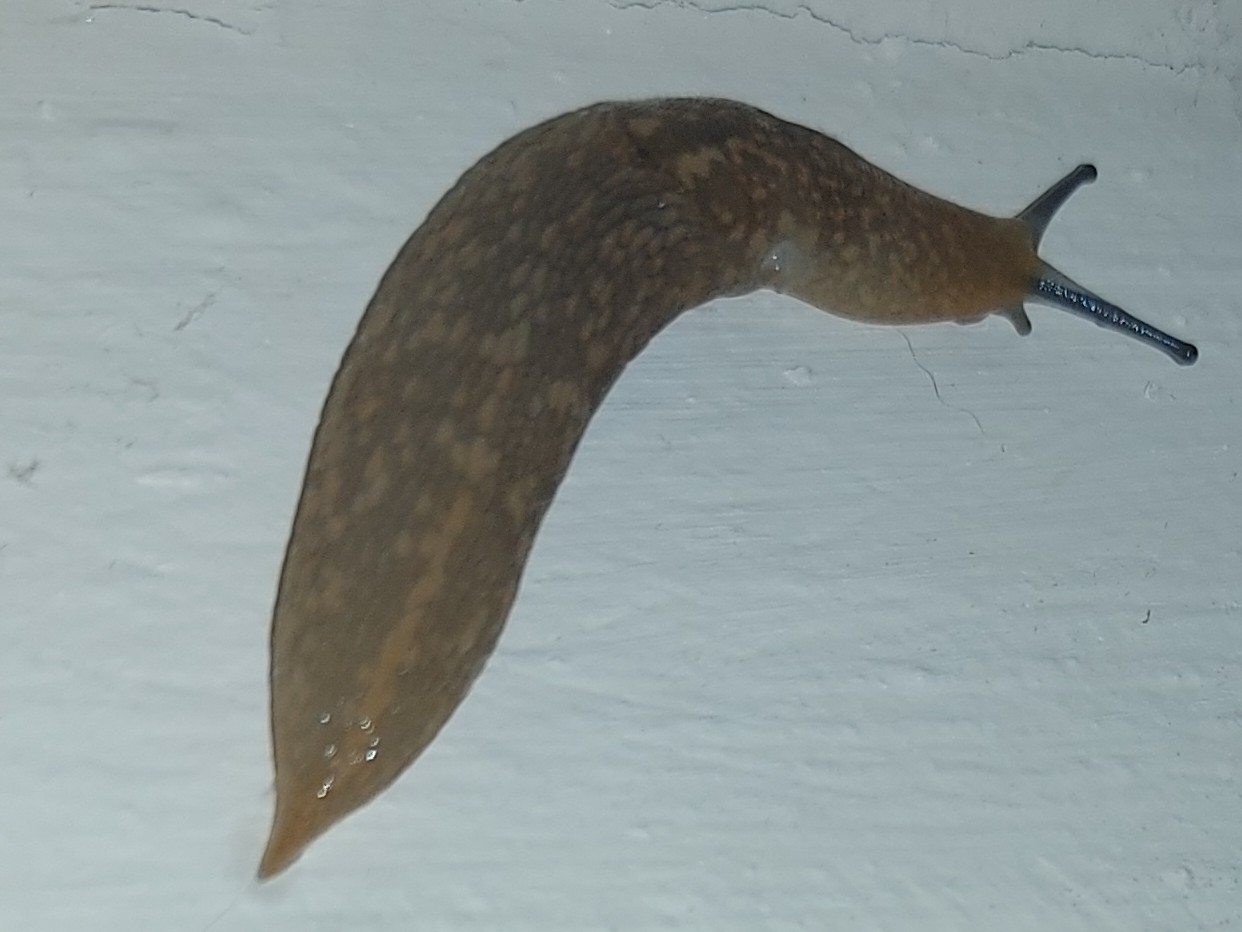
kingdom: Animalia
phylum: Mollusca
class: Gastropoda
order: Stylommatophora
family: Limacidae
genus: Limacus
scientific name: Limacus flavus
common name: Yellow gardenslug
